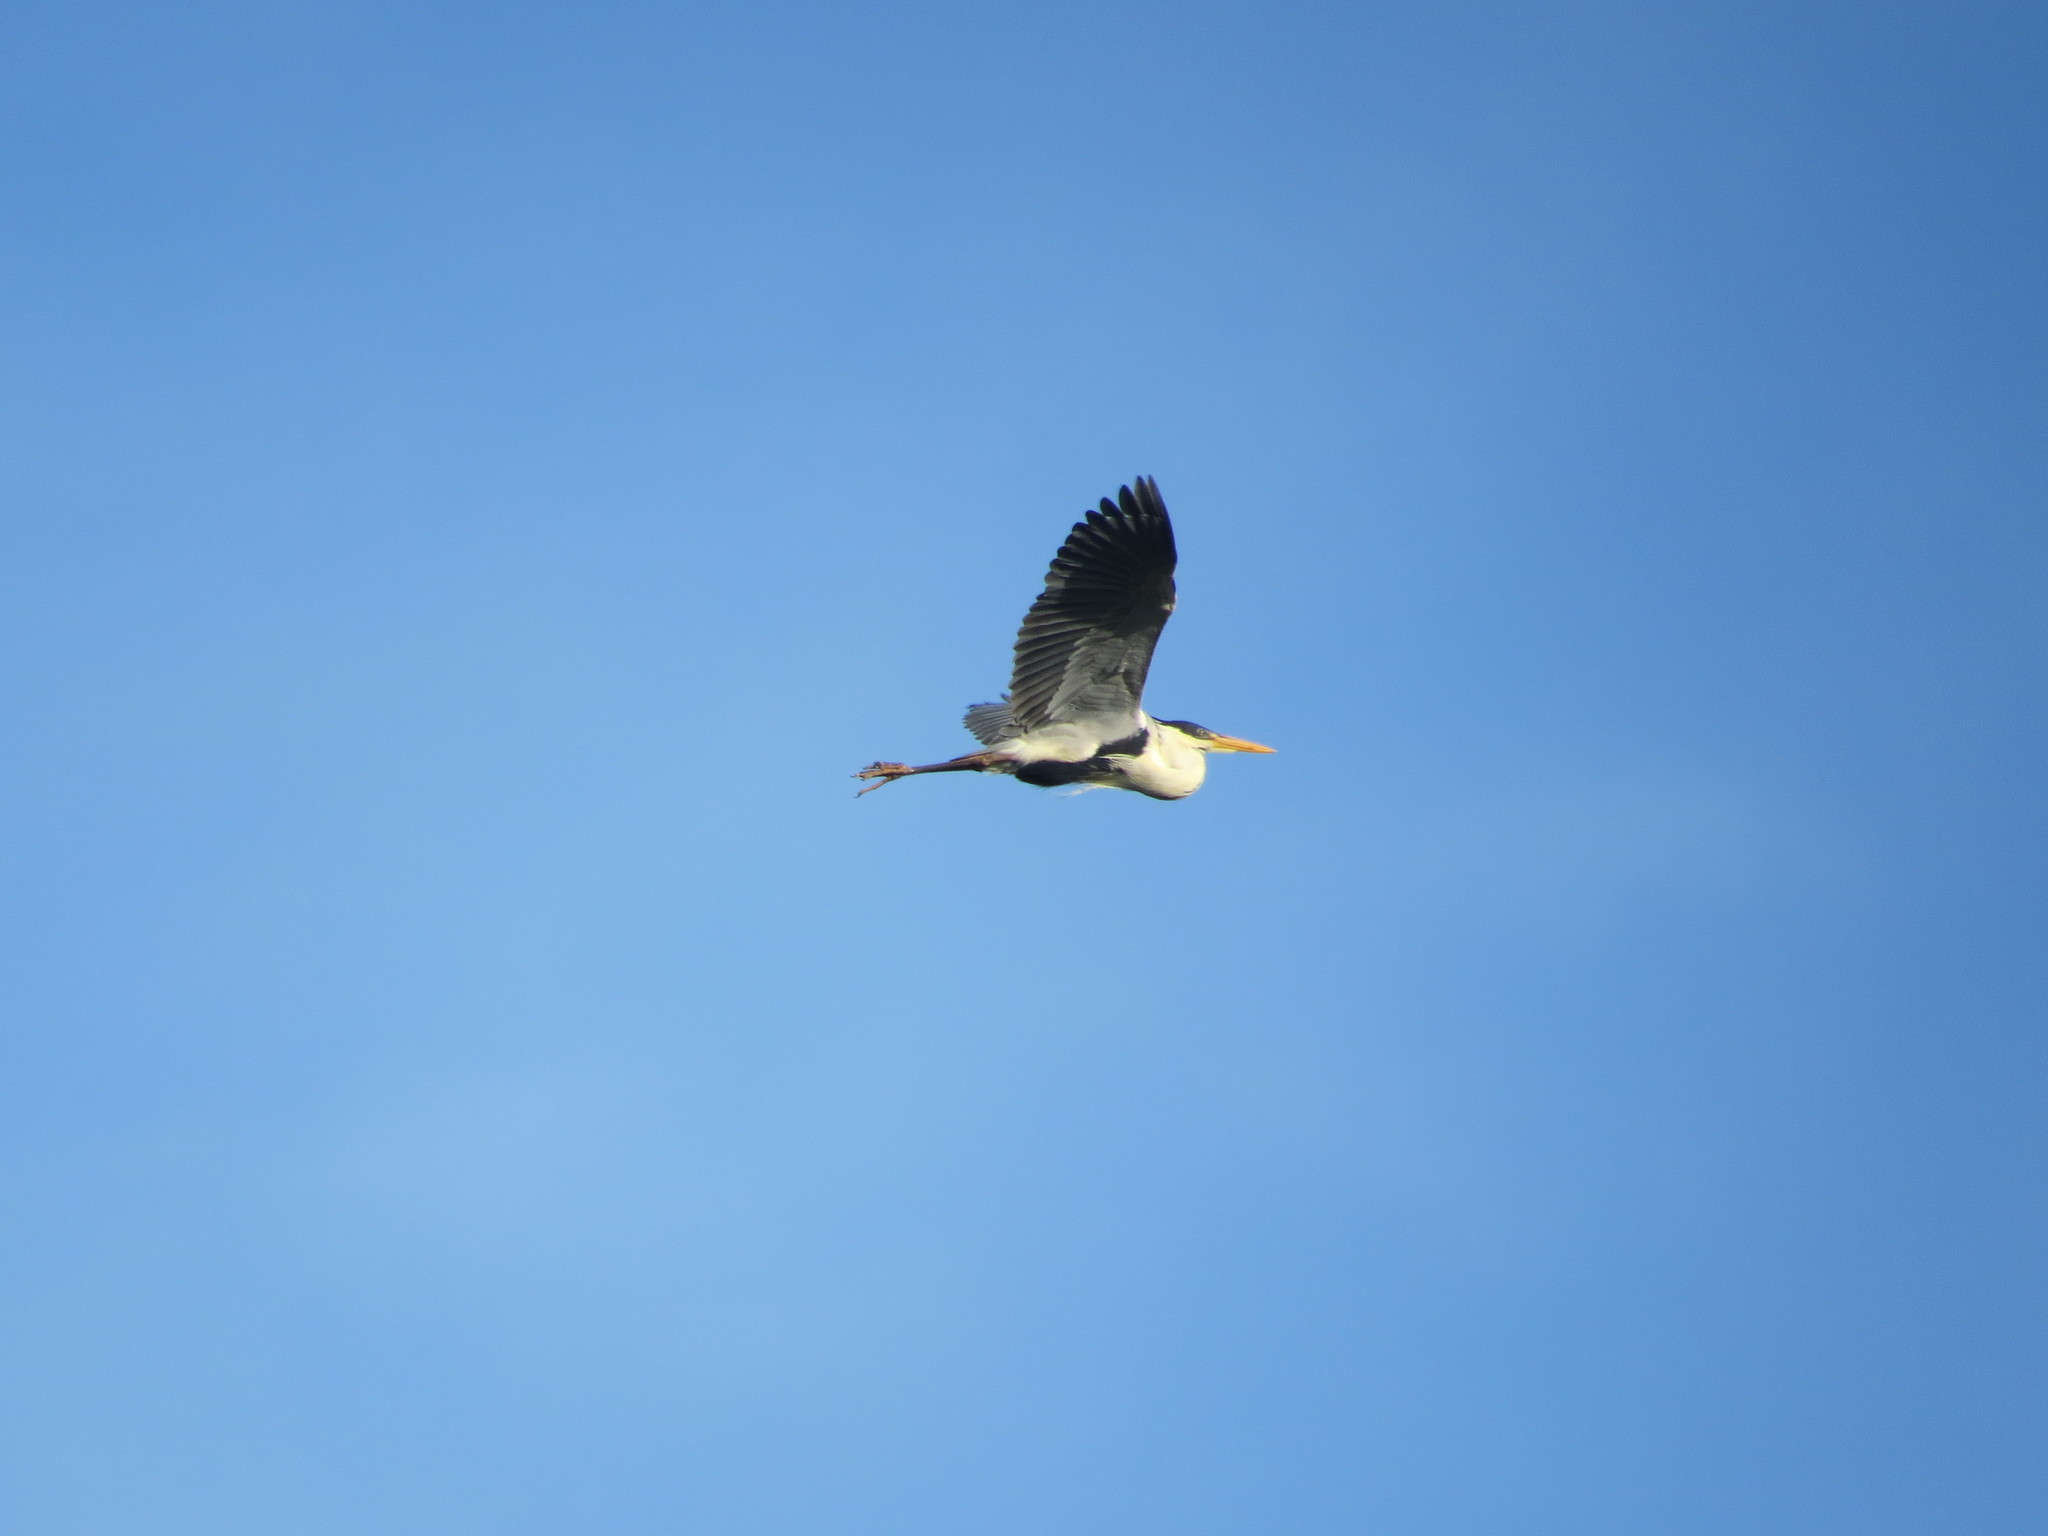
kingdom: Animalia
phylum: Chordata
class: Aves
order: Pelecaniformes
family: Ardeidae
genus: Ardea
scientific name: Ardea cocoi
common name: Cocoi heron
